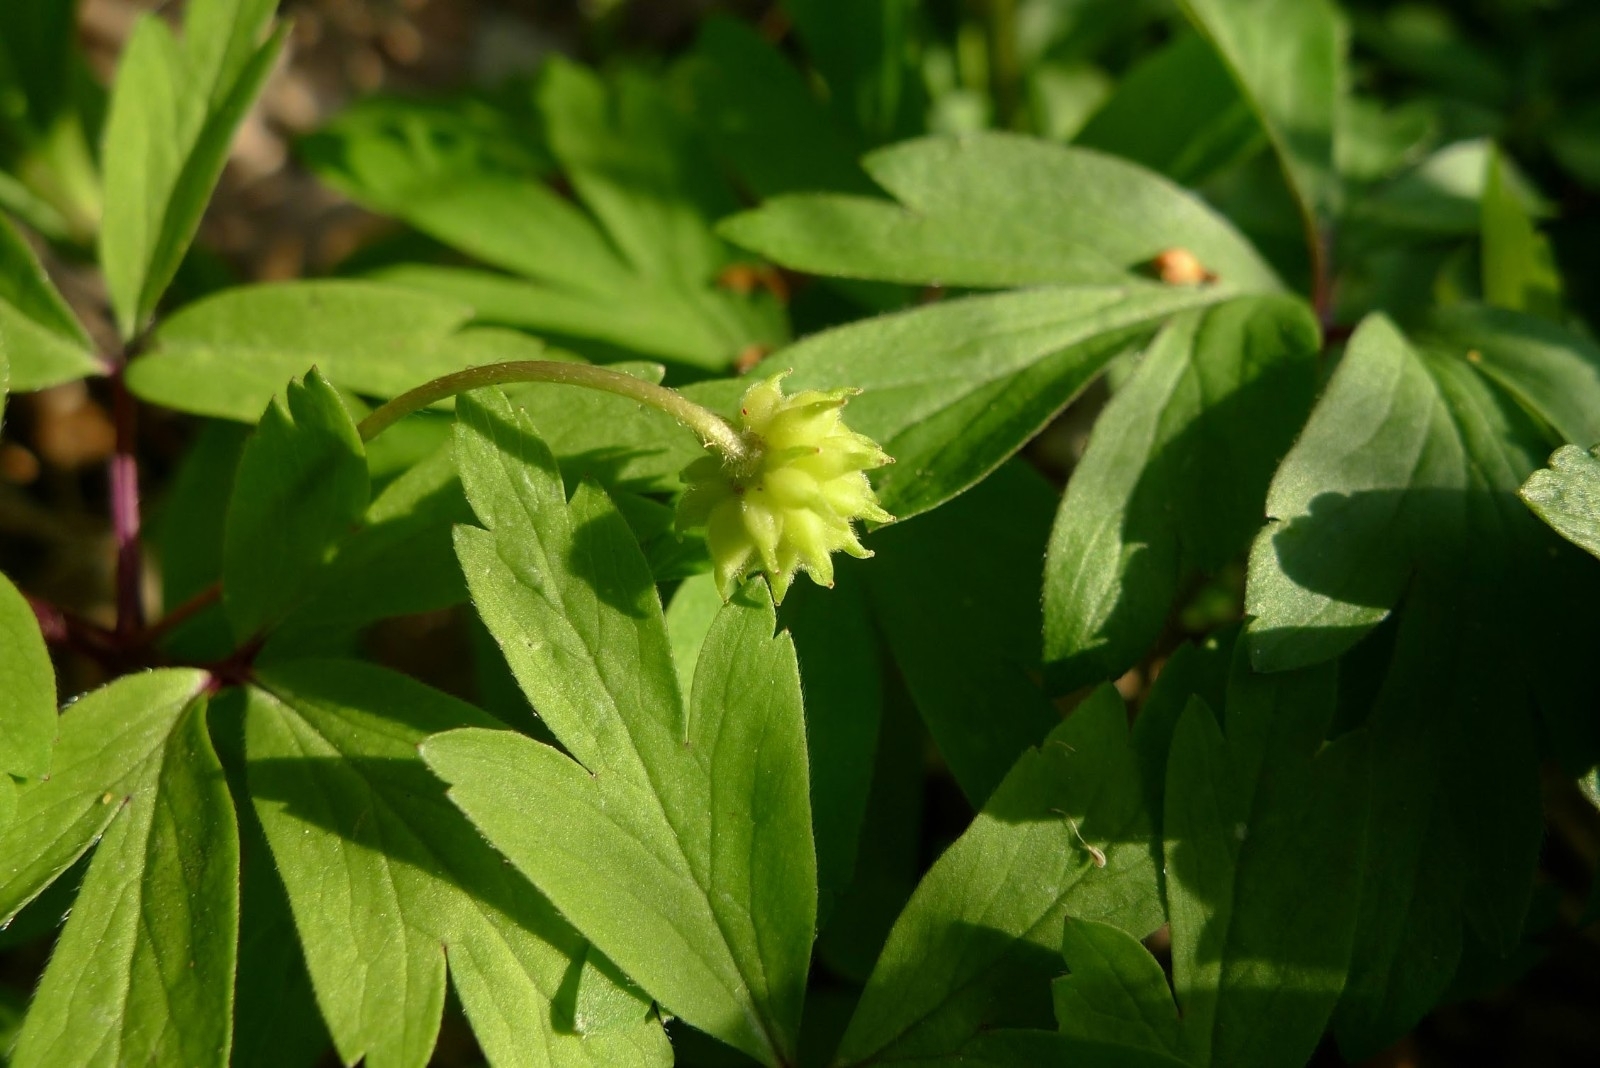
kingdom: Plantae
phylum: Tracheophyta
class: Magnoliopsida
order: Ranunculales
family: Ranunculaceae
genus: Anemone
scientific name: Anemone nemorosa
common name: Wood anemone
